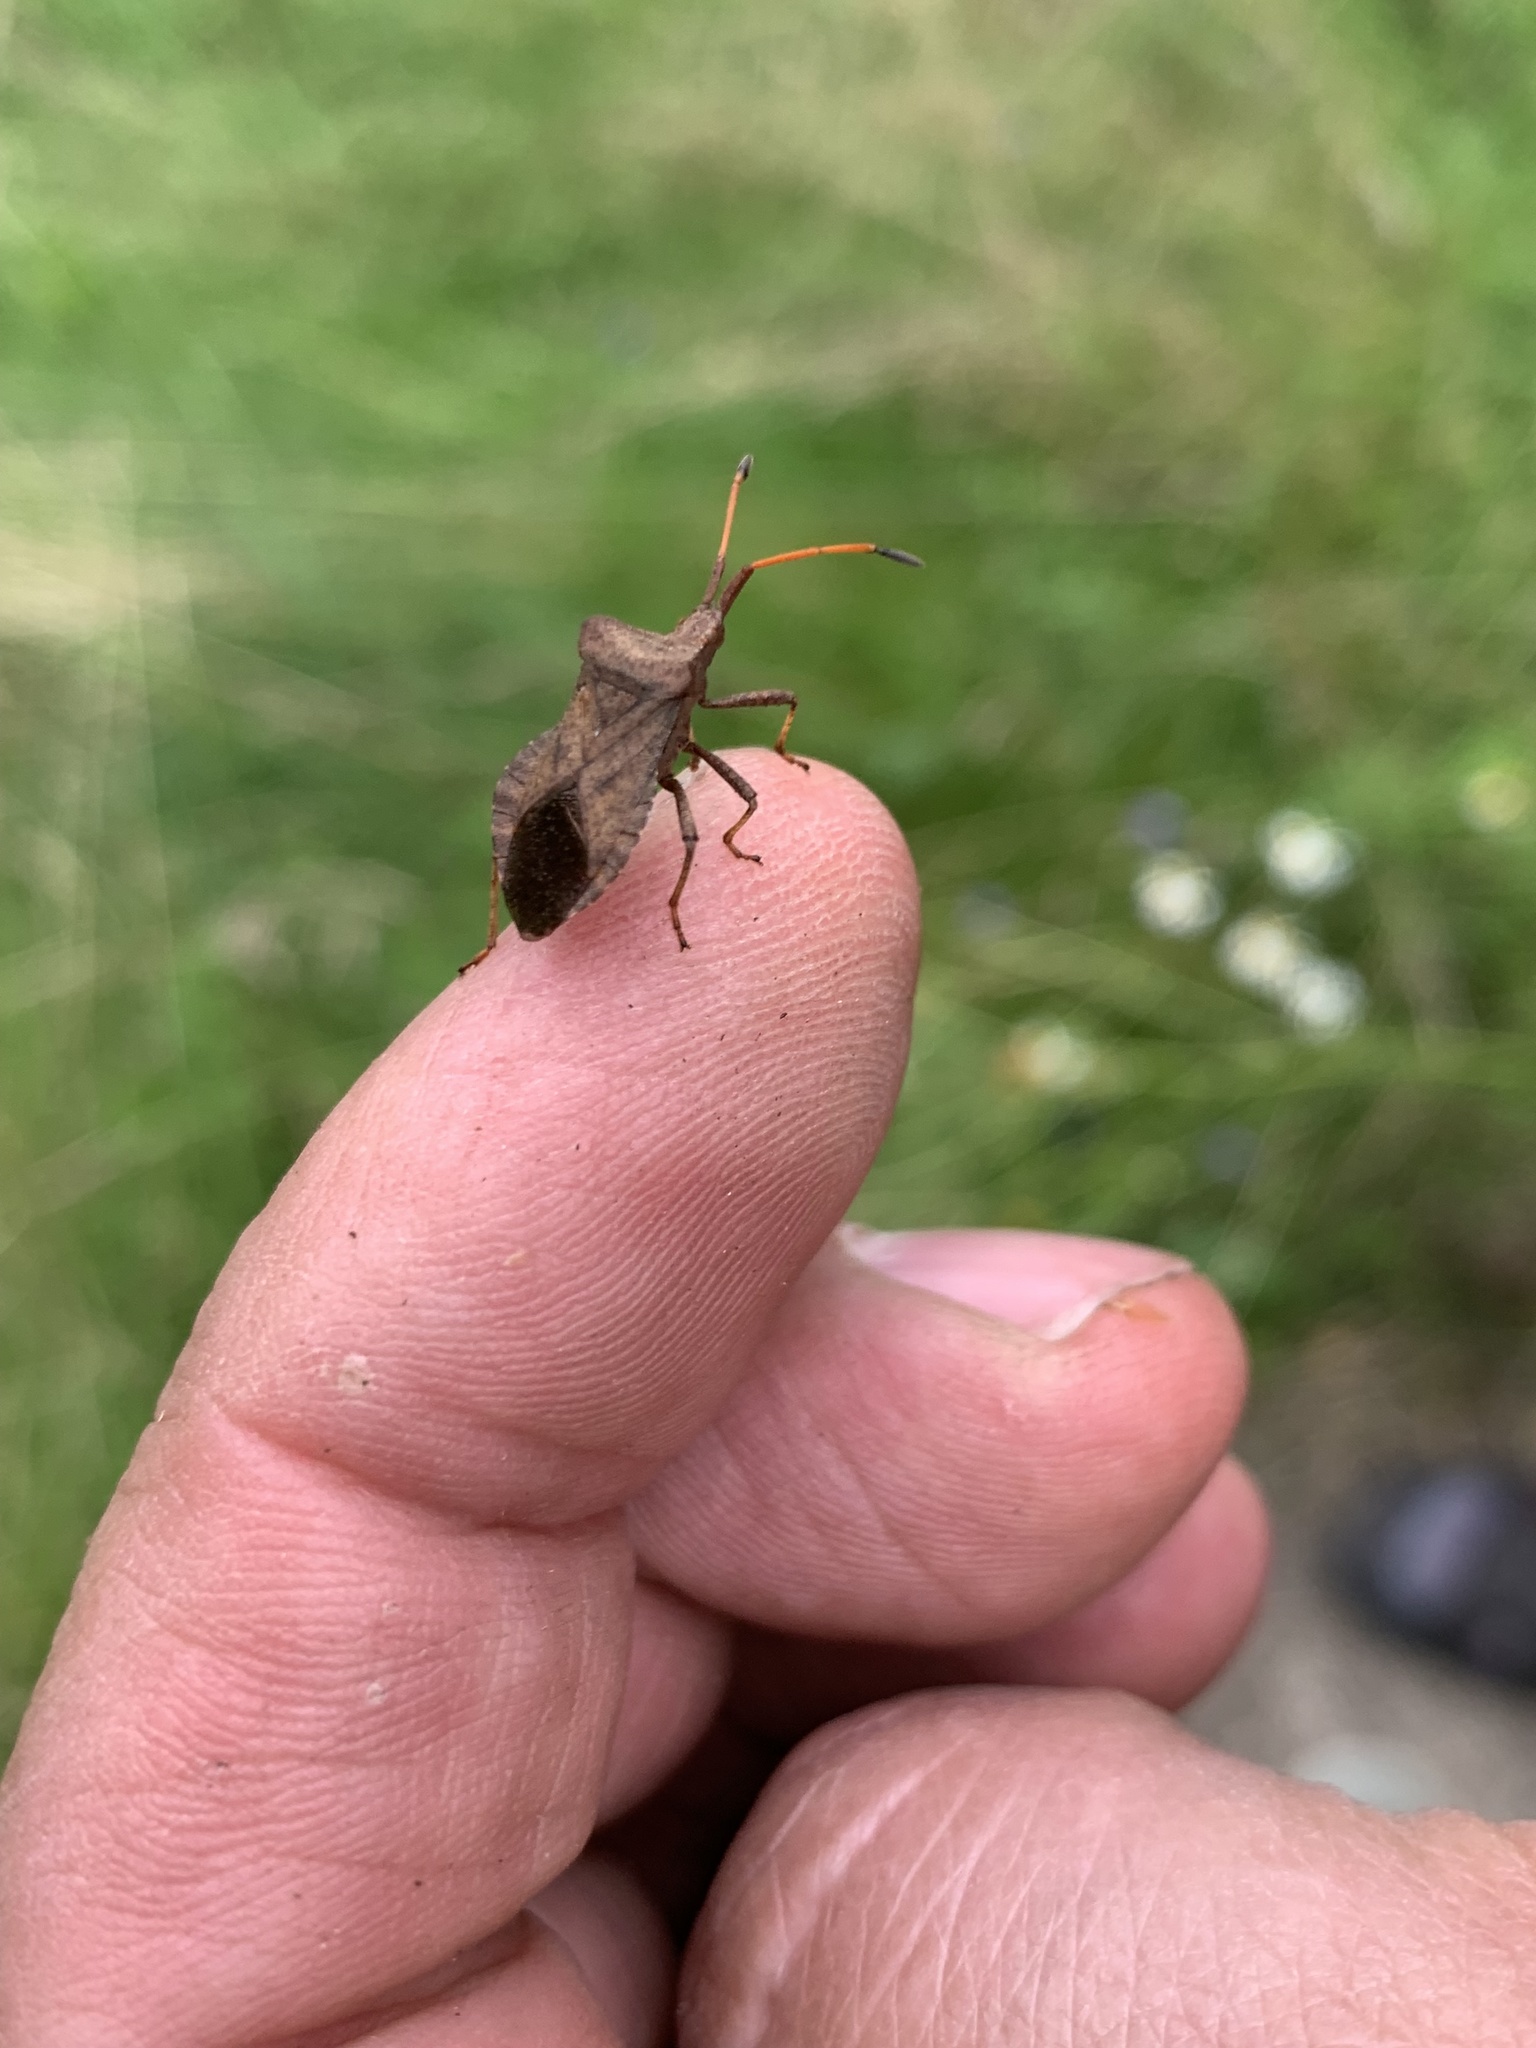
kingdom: Animalia
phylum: Arthropoda
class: Insecta
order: Hemiptera
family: Coreidae
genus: Coreus
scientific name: Coreus marginatus
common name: Dock bug
